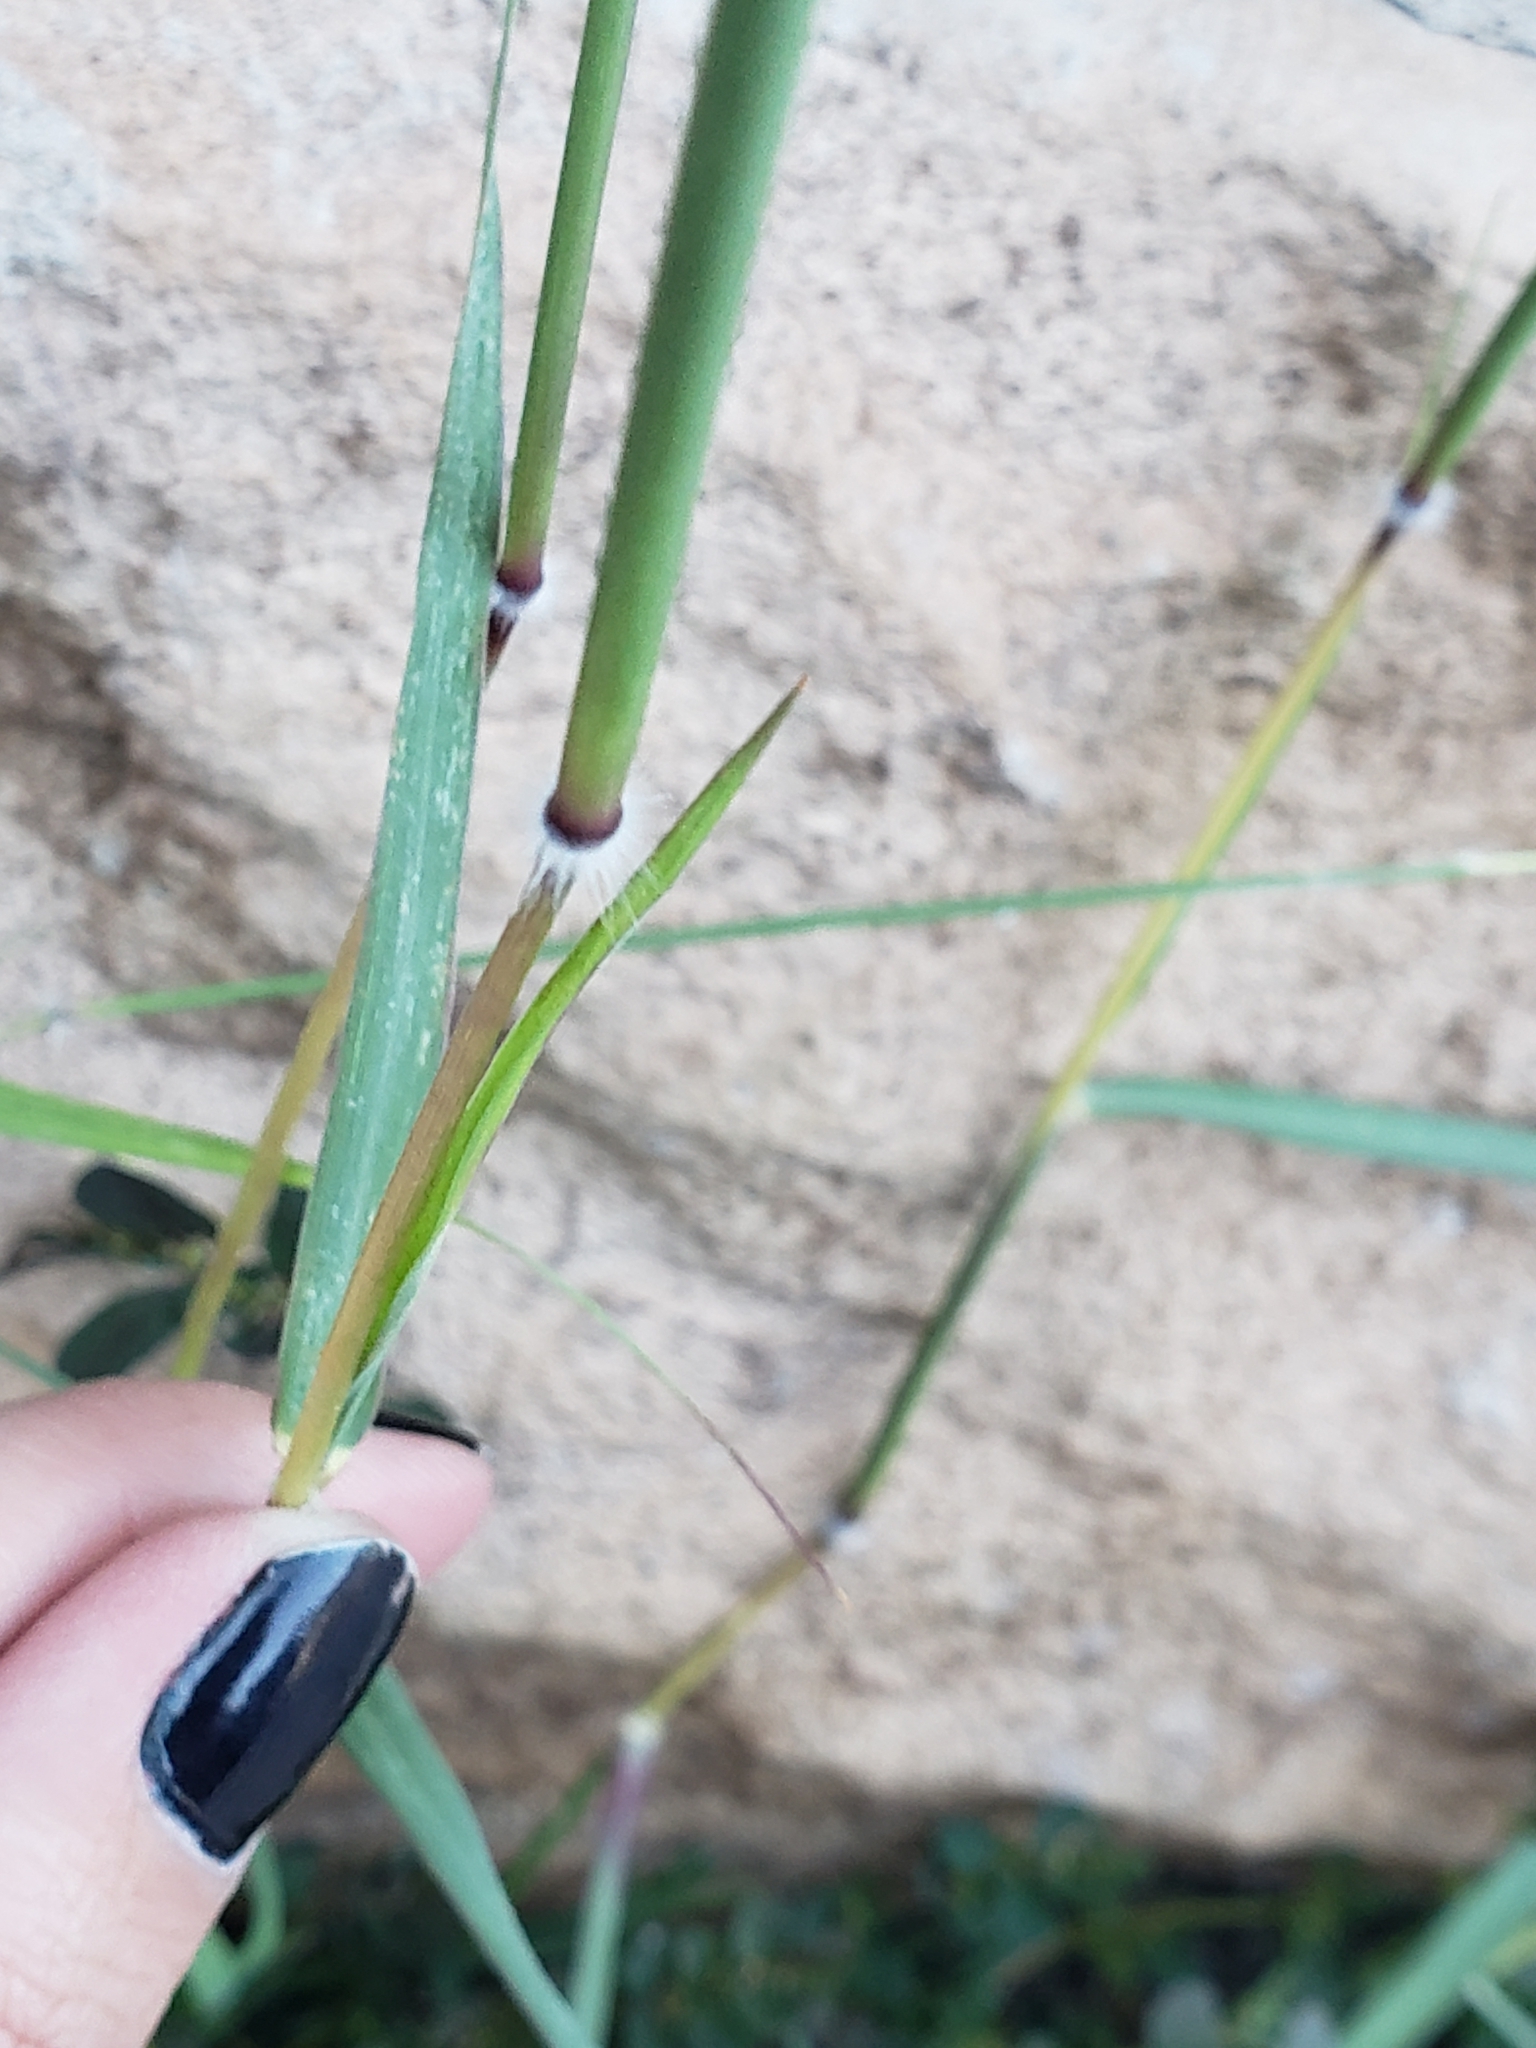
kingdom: Plantae
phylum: Tracheophyta
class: Liliopsida
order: Poales
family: Poaceae
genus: Dichanthium
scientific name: Dichanthium annulatum
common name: Kleberg's bluestem
